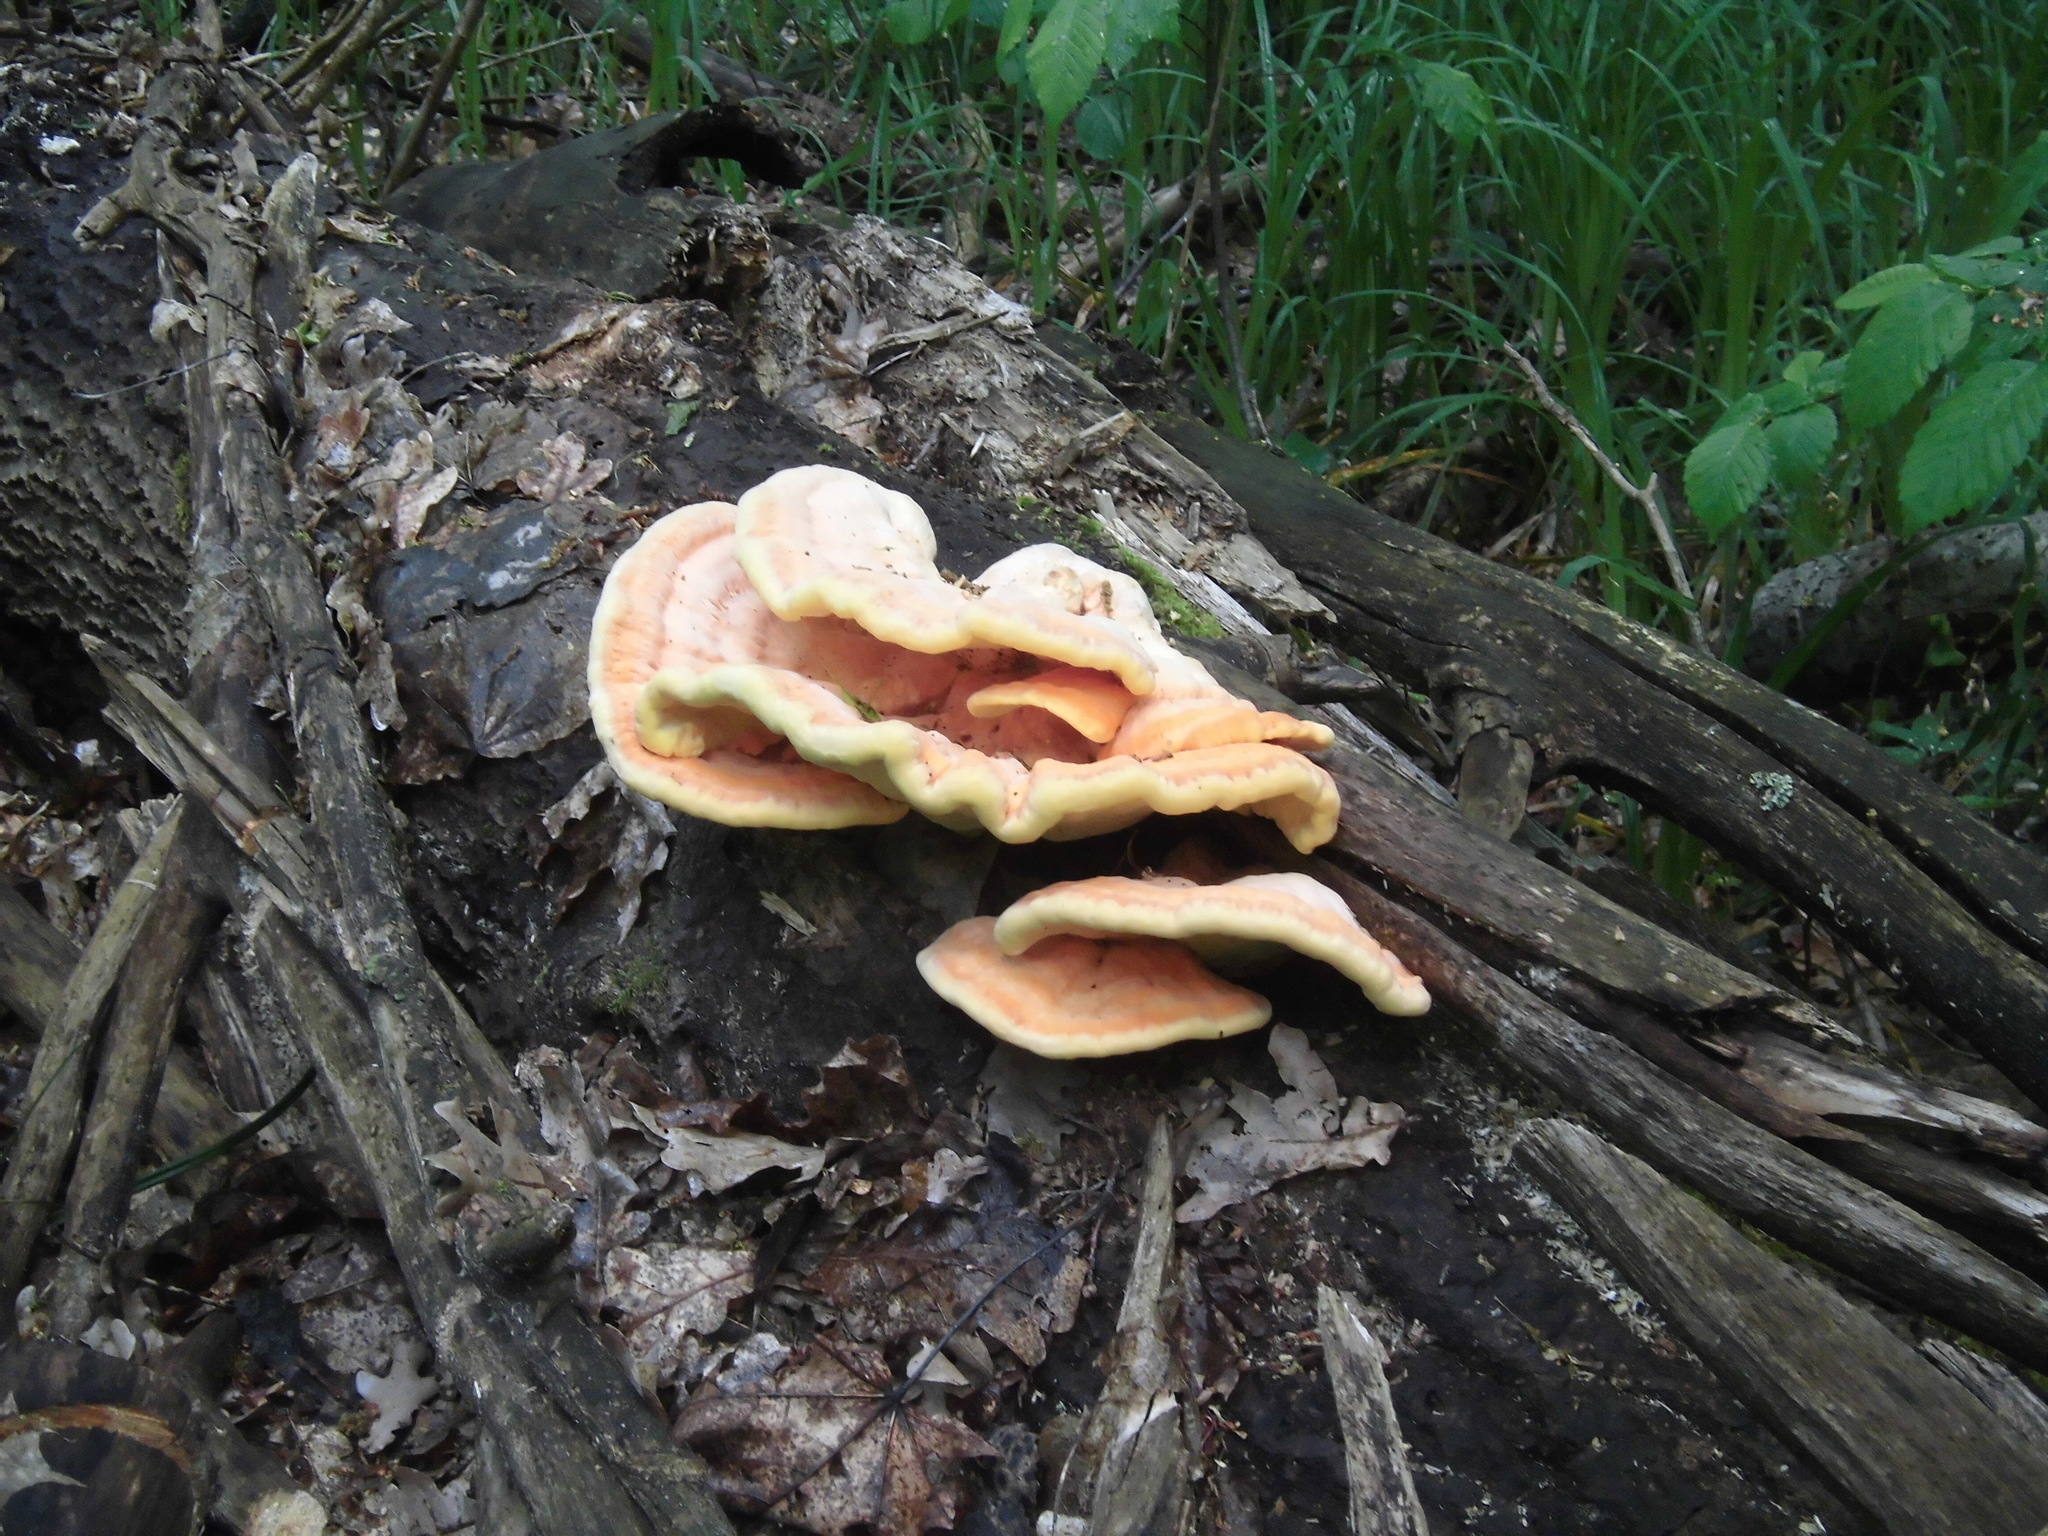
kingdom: Fungi
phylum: Basidiomycota
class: Agaricomycetes
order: Polyporales
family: Laetiporaceae
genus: Laetiporus
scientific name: Laetiporus sulphureus
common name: Chicken of the woods
